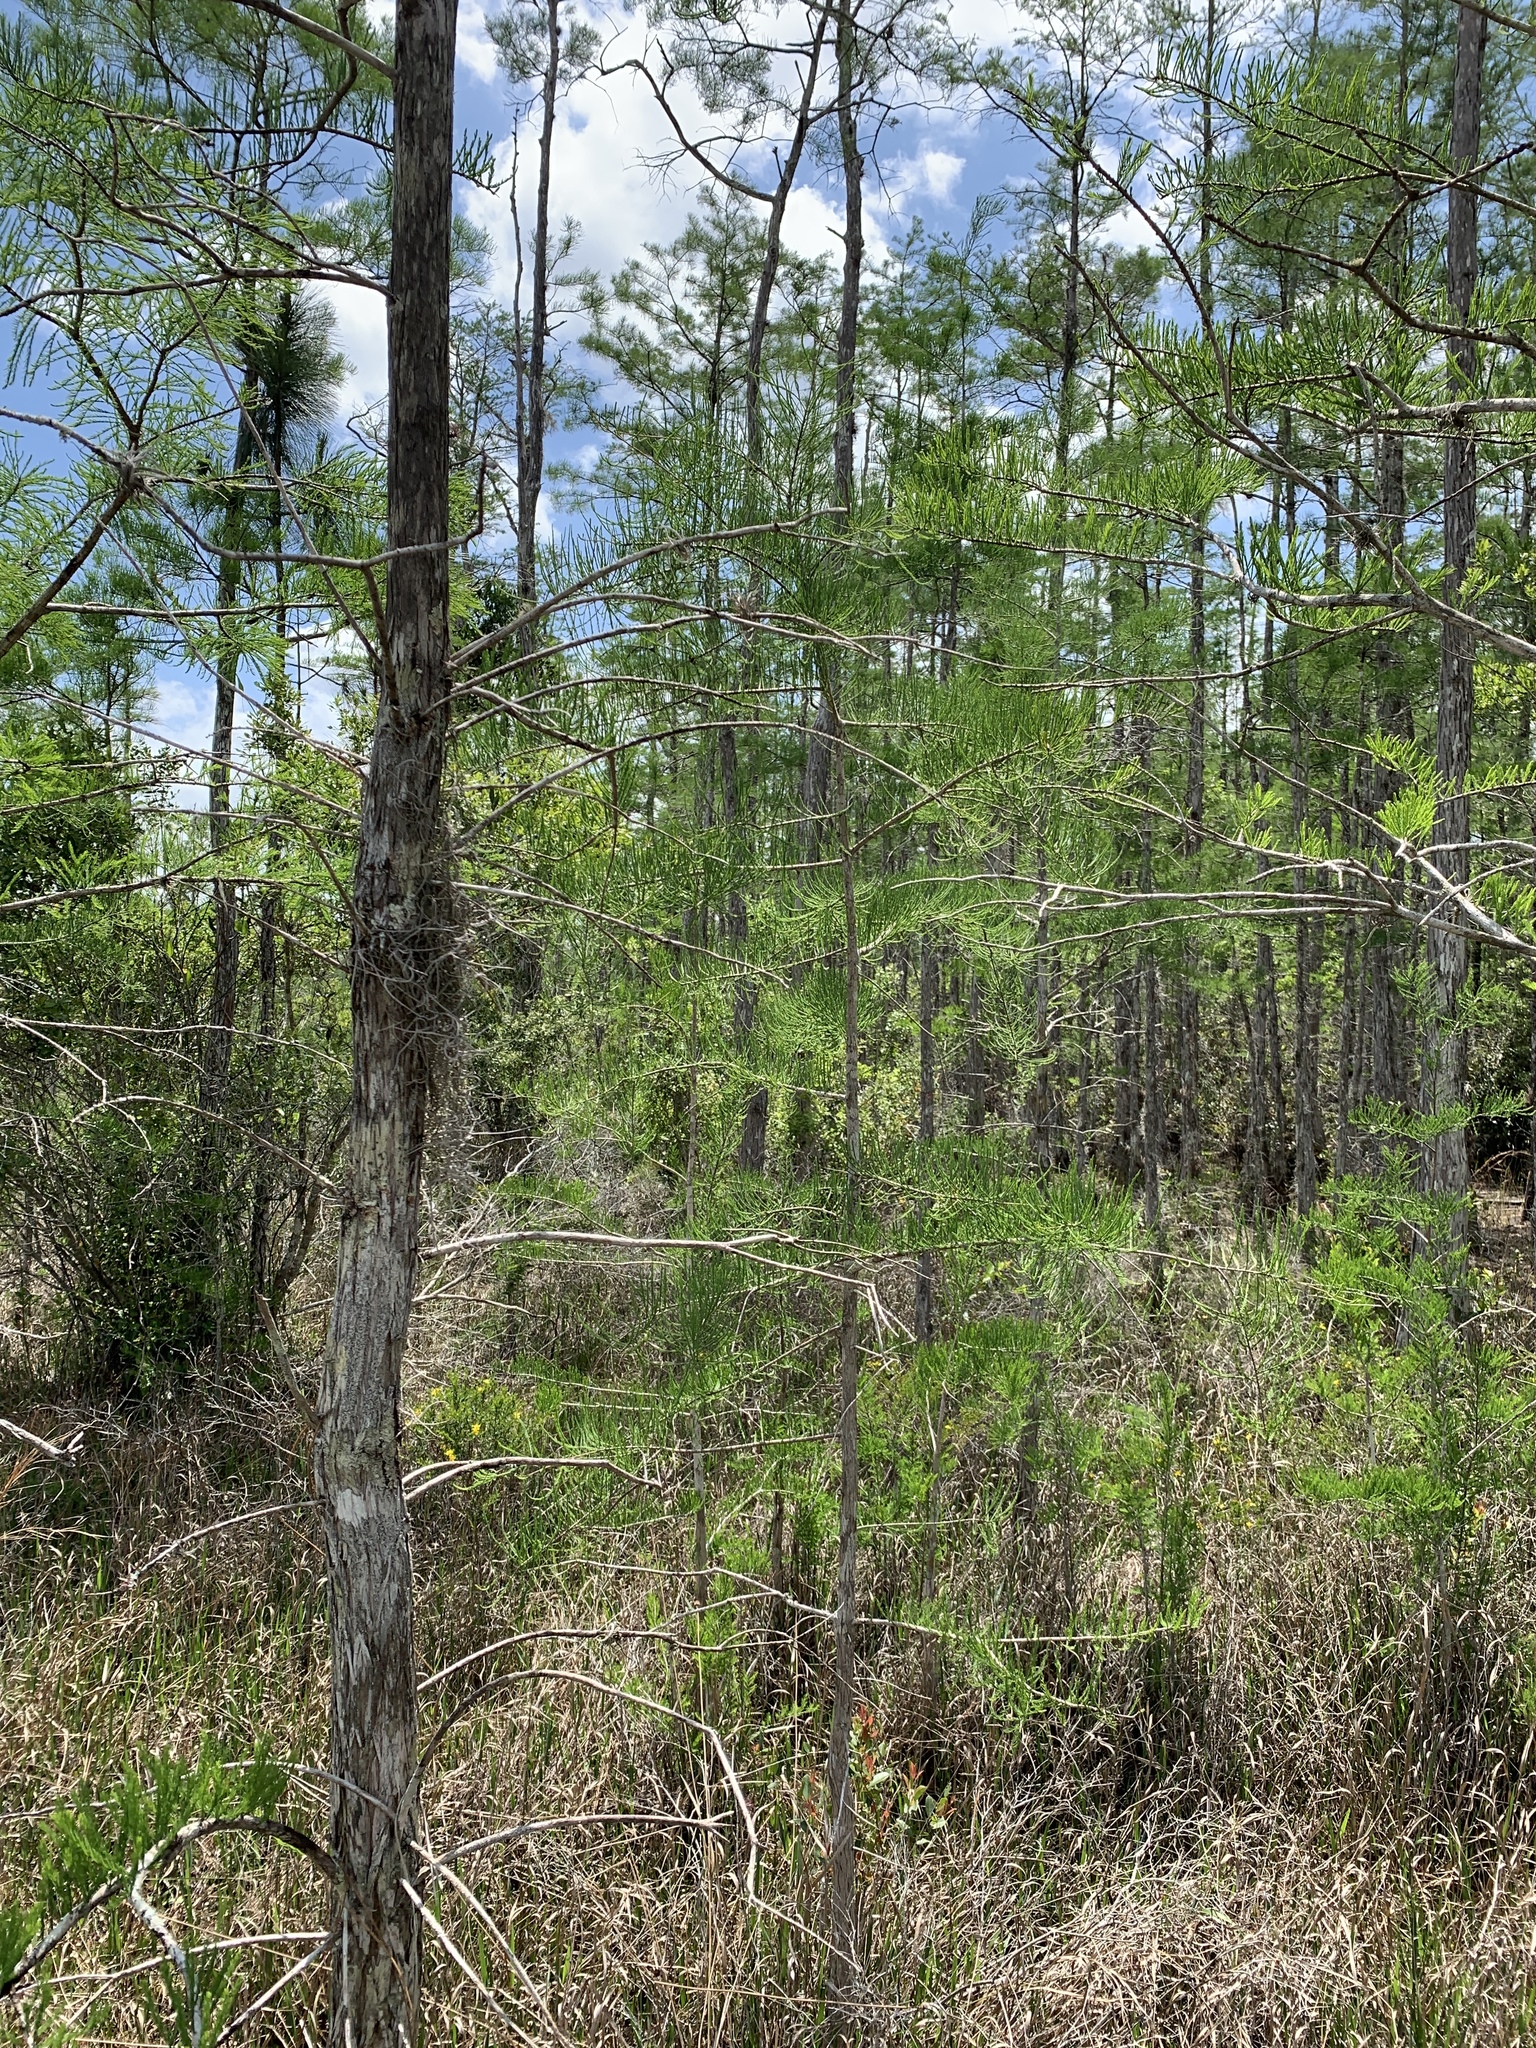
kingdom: Plantae
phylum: Tracheophyta
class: Pinopsida
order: Pinales
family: Cupressaceae
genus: Taxodium
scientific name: Taxodium distichum
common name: Bald cypress
